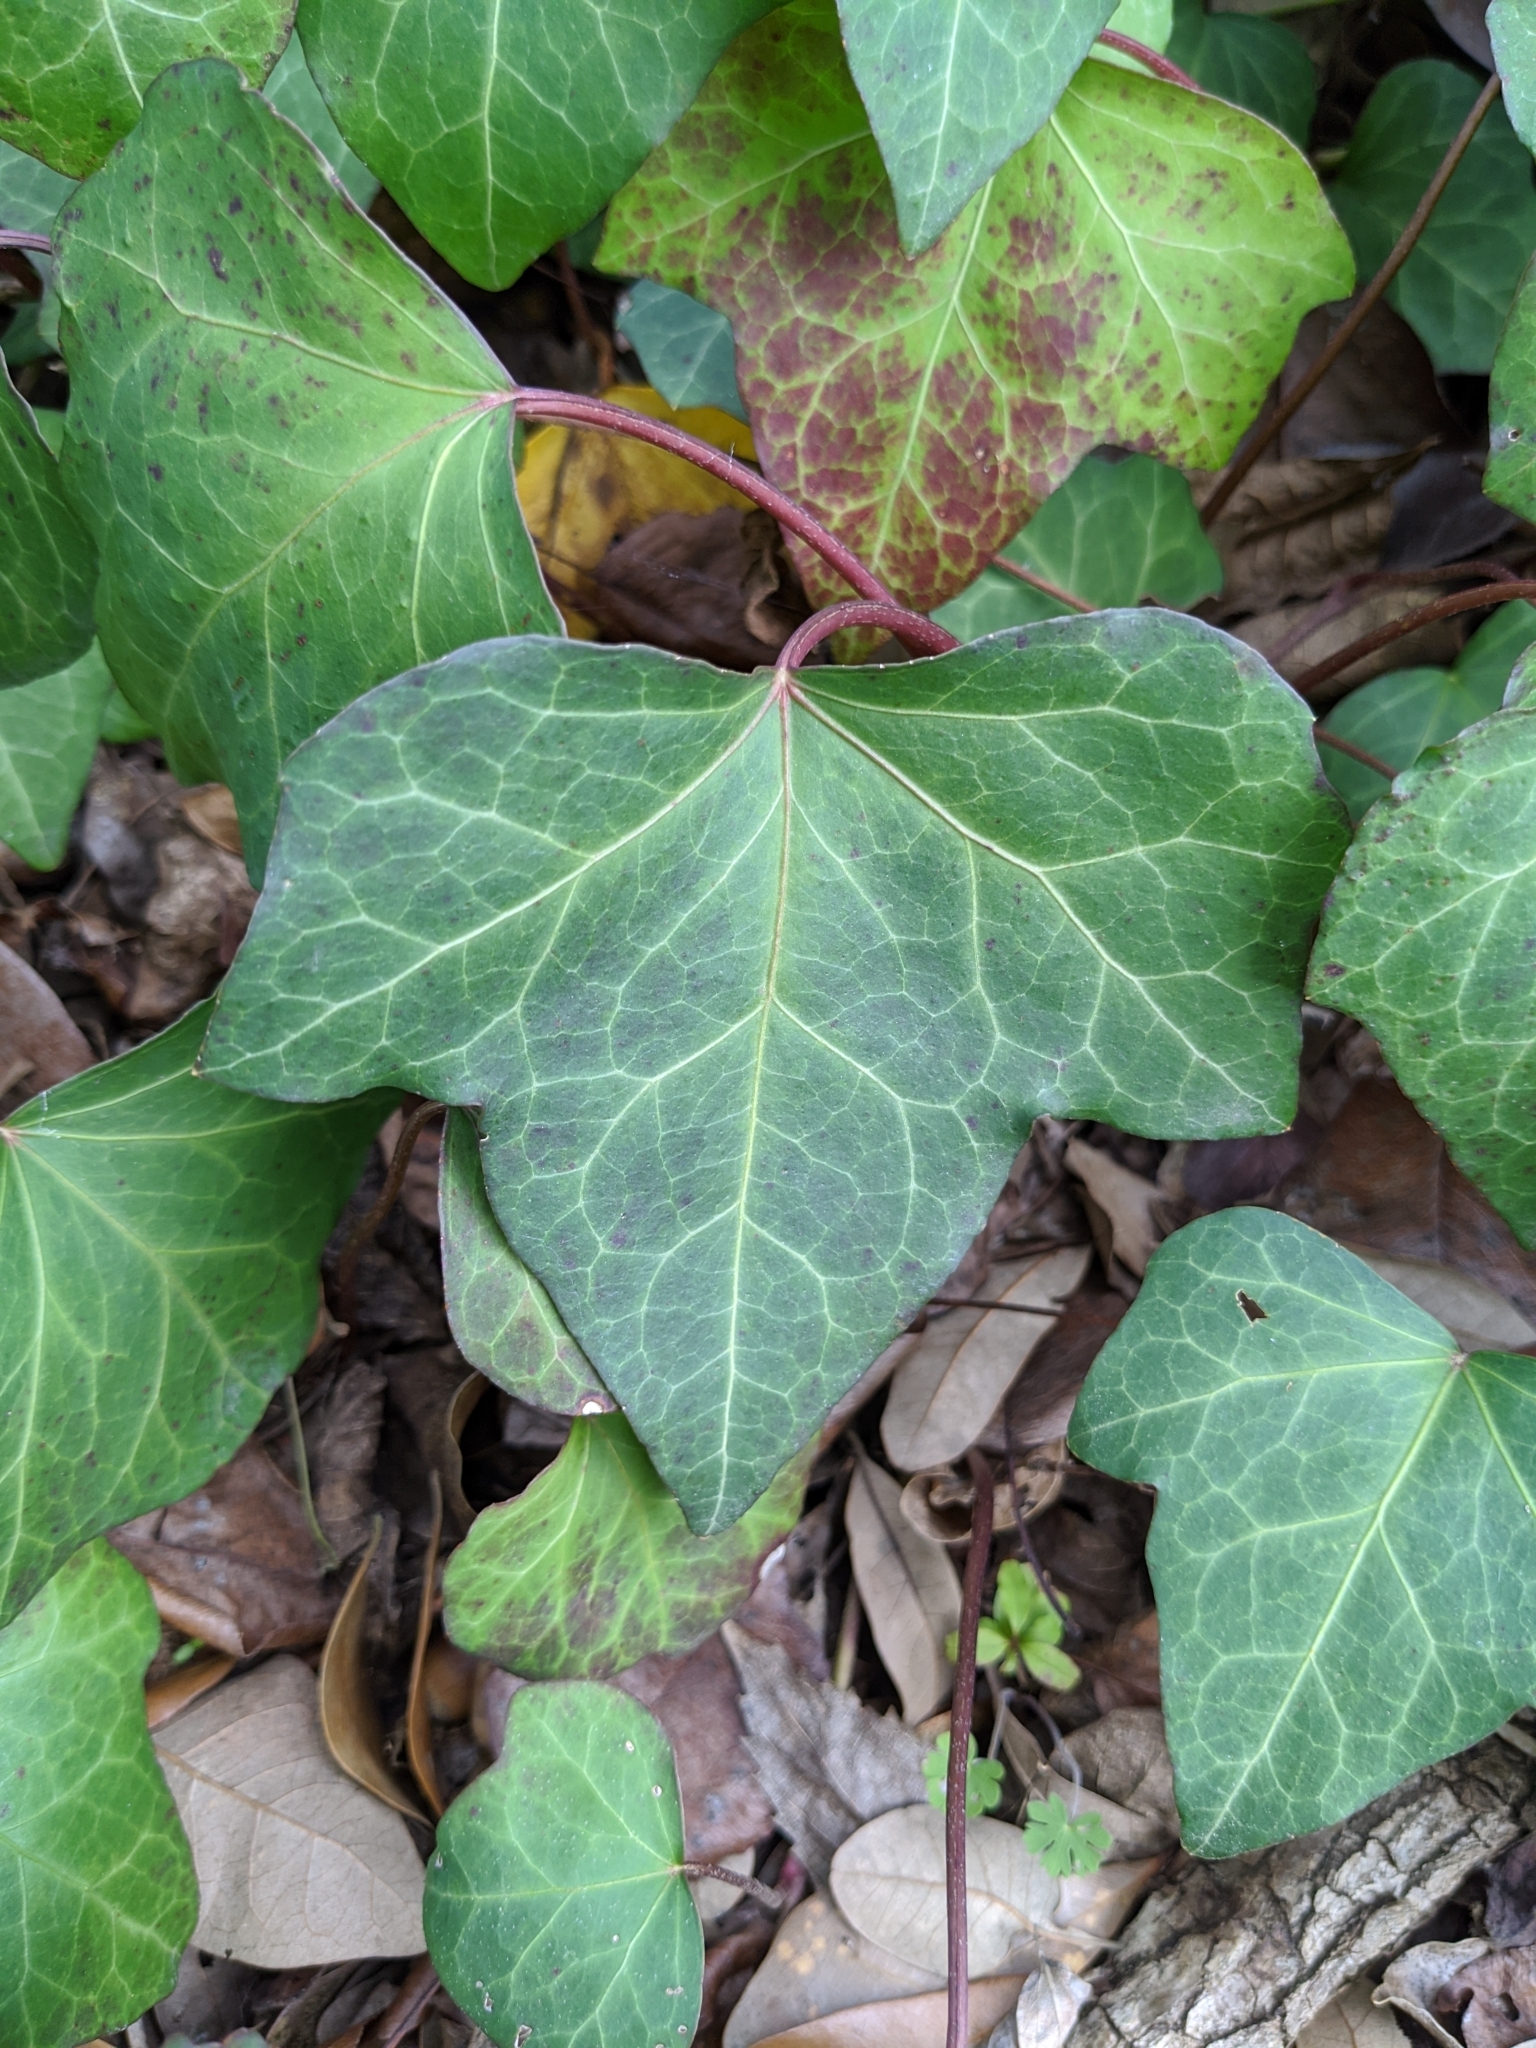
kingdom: Plantae
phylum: Tracheophyta
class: Magnoliopsida
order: Apiales
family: Araliaceae
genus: Hedera
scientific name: Hedera helix
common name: Ivy
